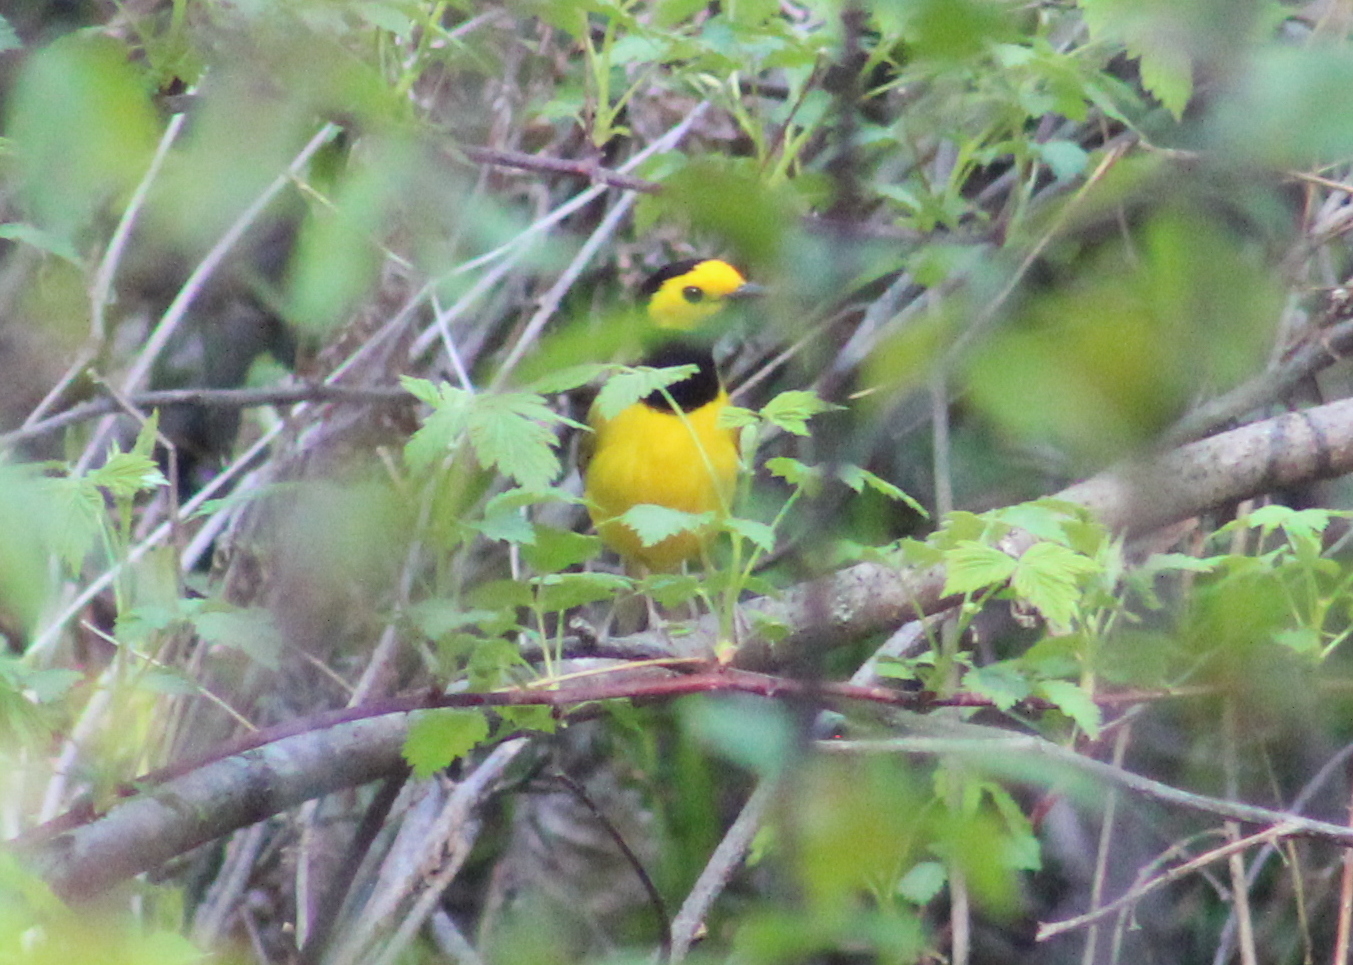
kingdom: Animalia
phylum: Chordata
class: Aves
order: Passeriformes
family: Parulidae
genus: Setophaga
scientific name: Setophaga citrina
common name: Hooded warbler
